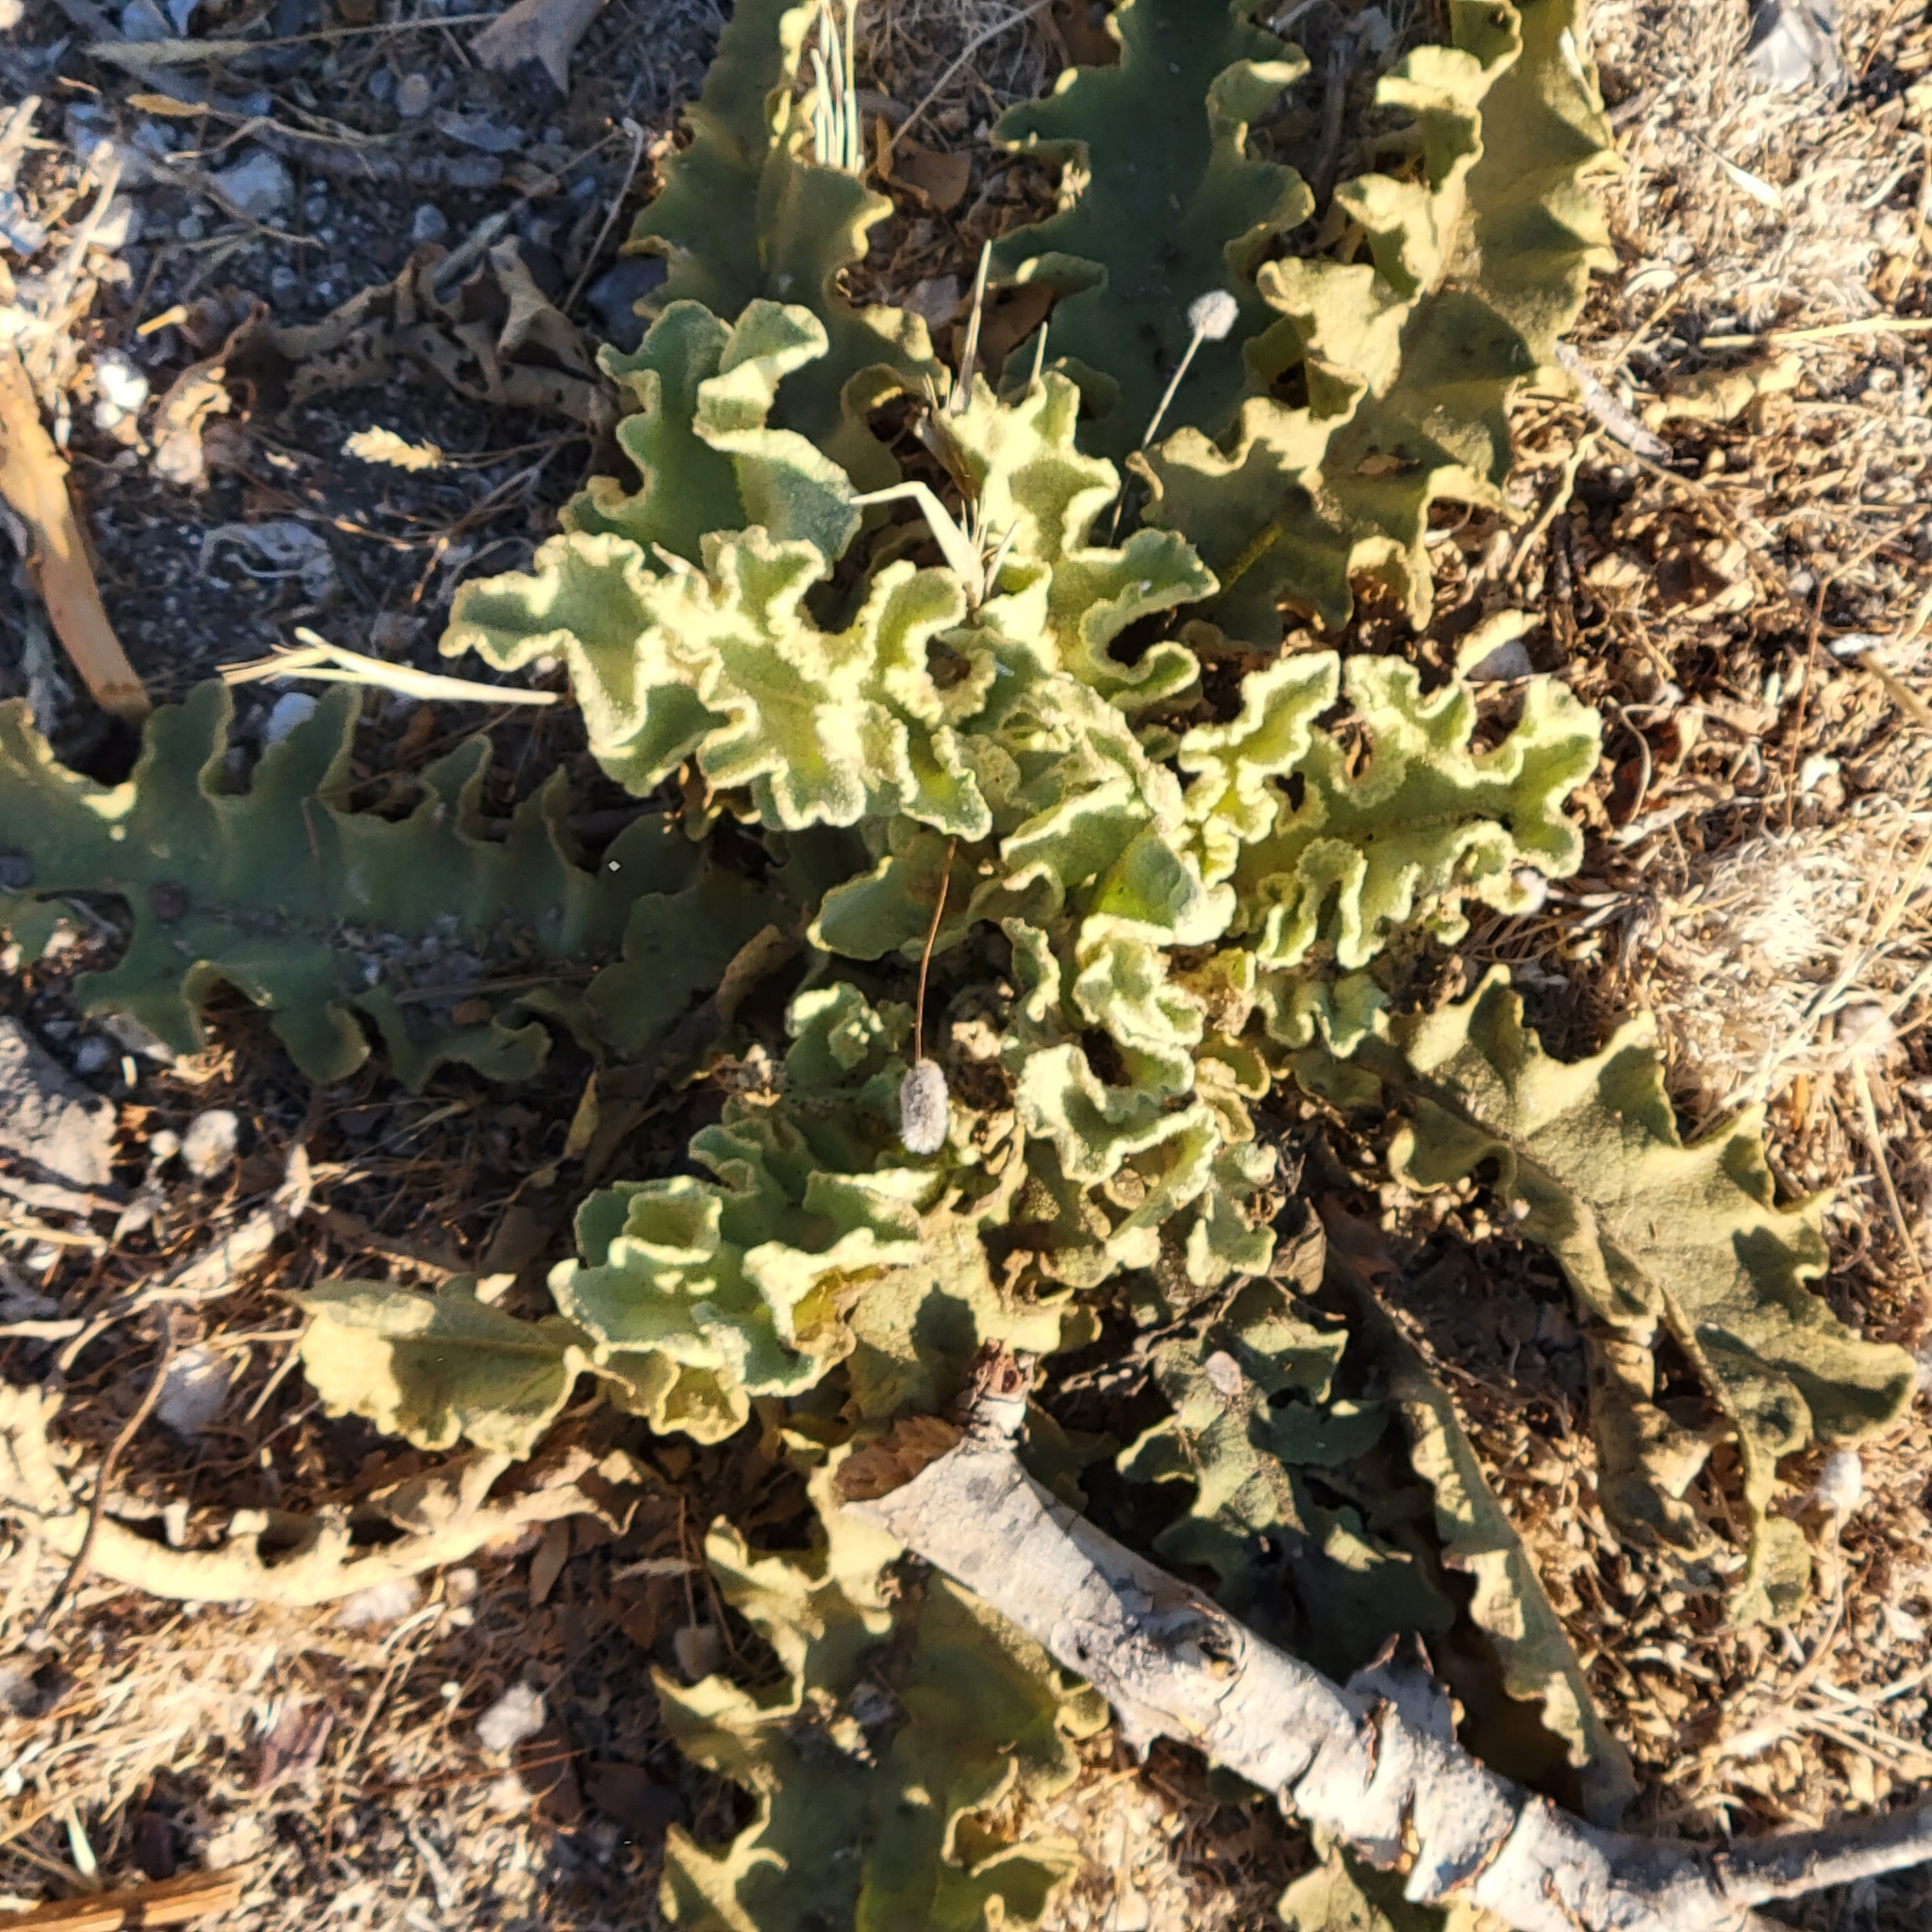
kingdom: Plantae
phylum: Tracheophyta
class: Magnoliopsida
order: Lamiales
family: Scrophulariaceae
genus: Verbascum
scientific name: Verbascum sinuatum
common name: Wavyleaf mullein
